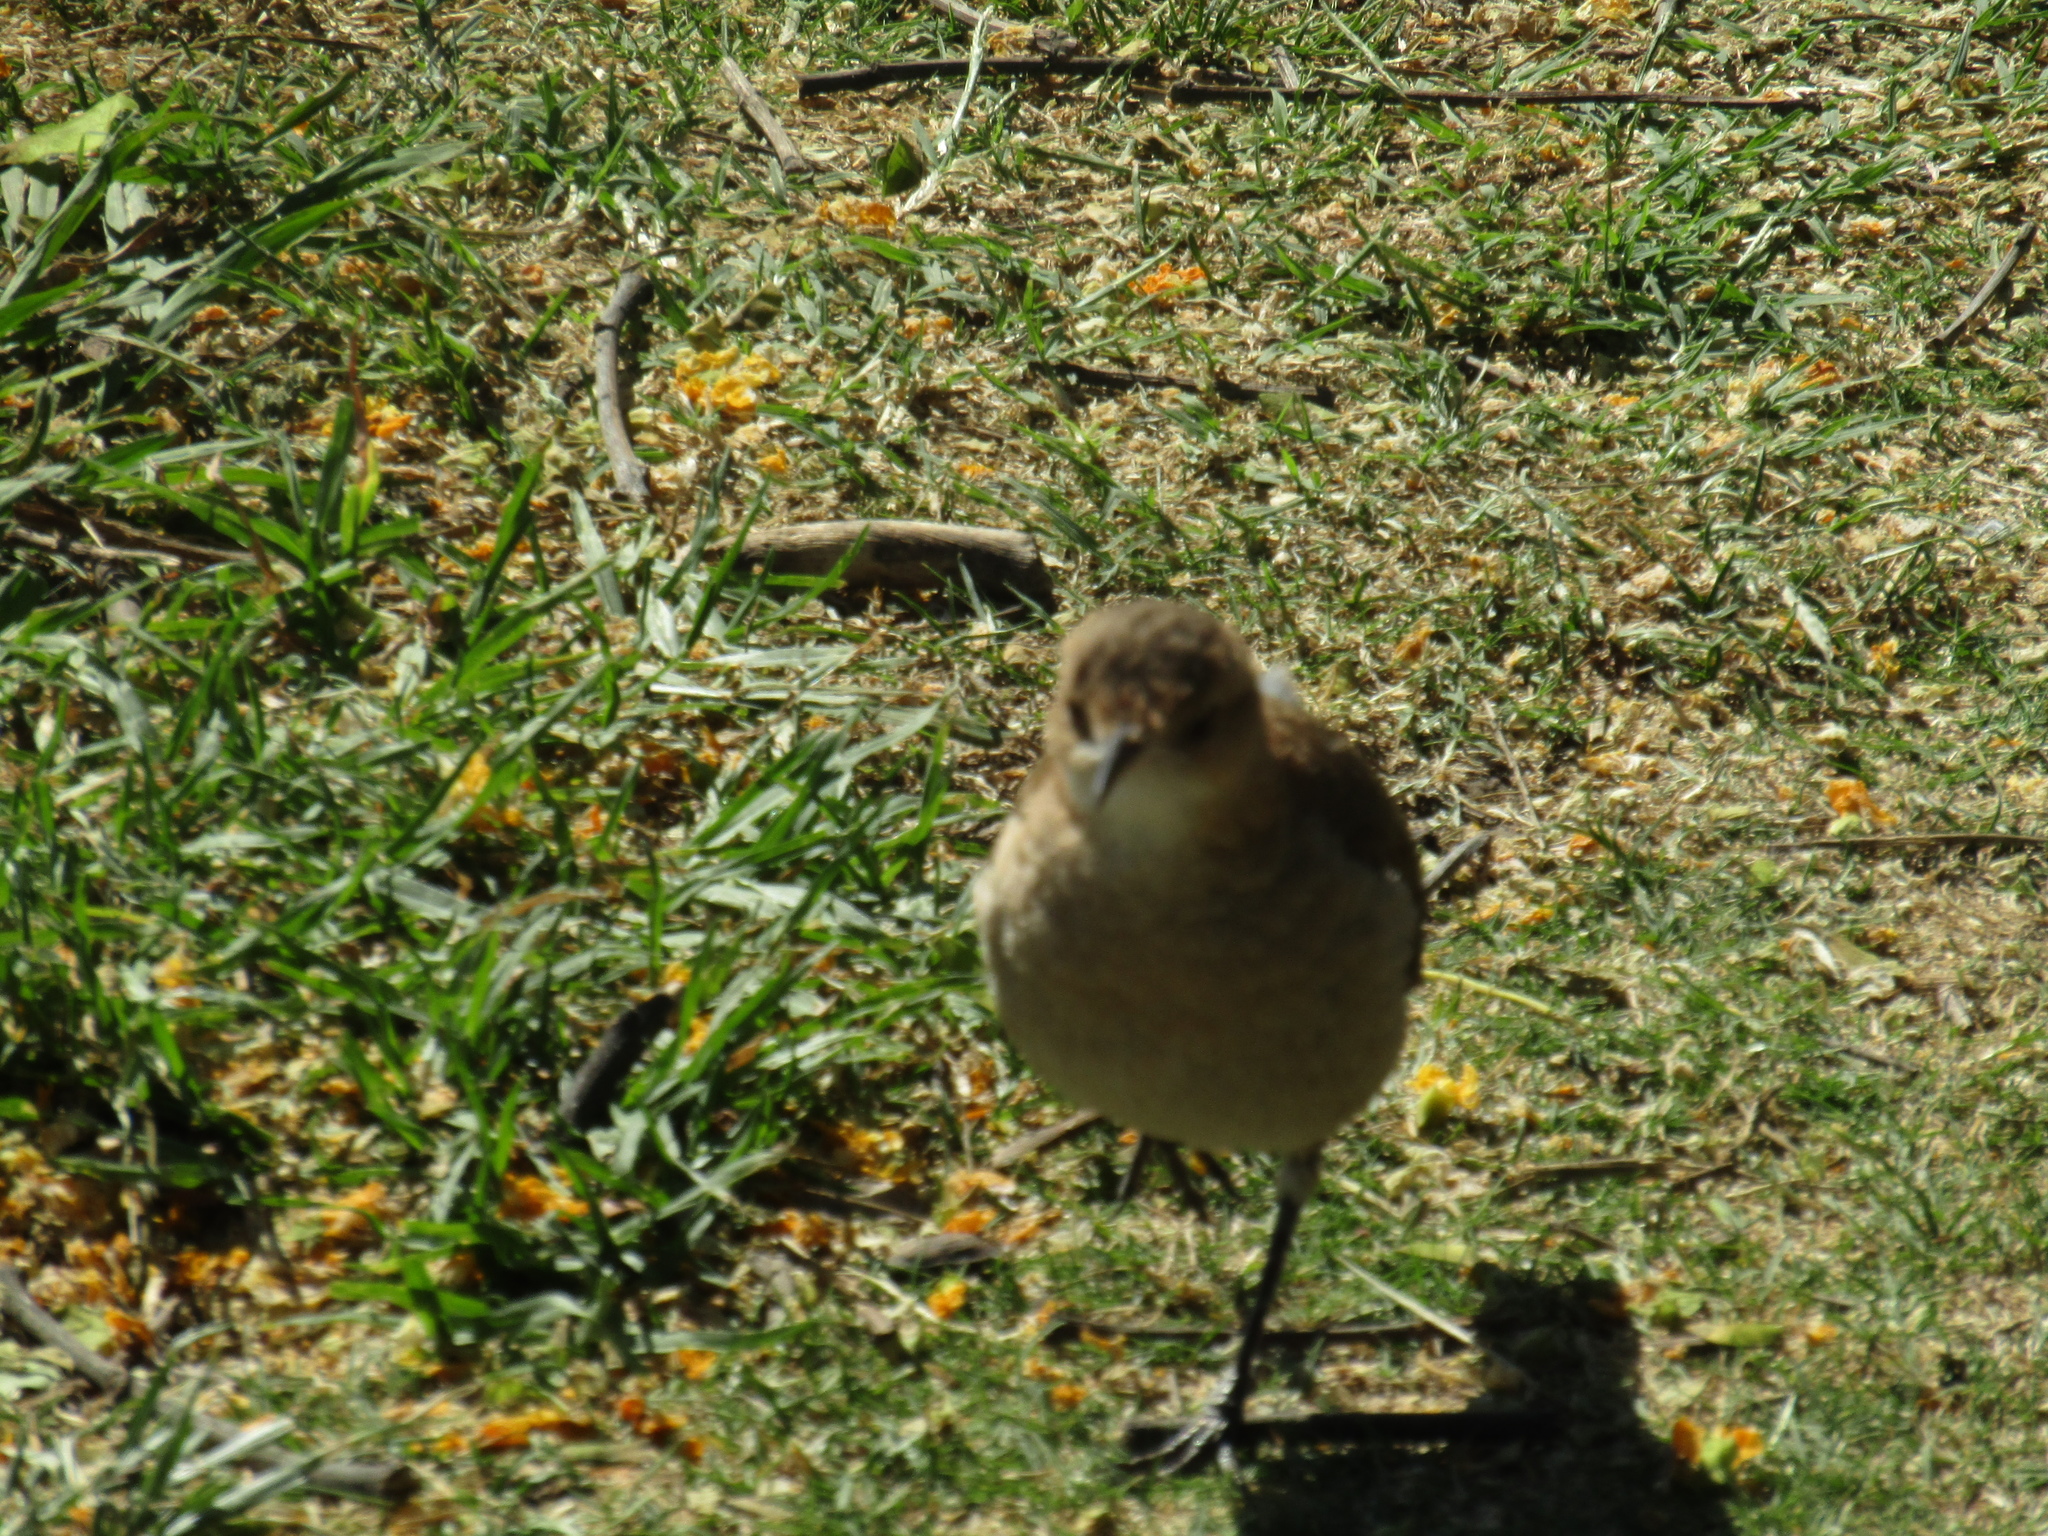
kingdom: Animalia
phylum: Chordata
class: Aves
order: Passeriformes
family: Furnariidae
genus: Furnarius
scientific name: Furnarius rufus
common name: Rufous hornero
